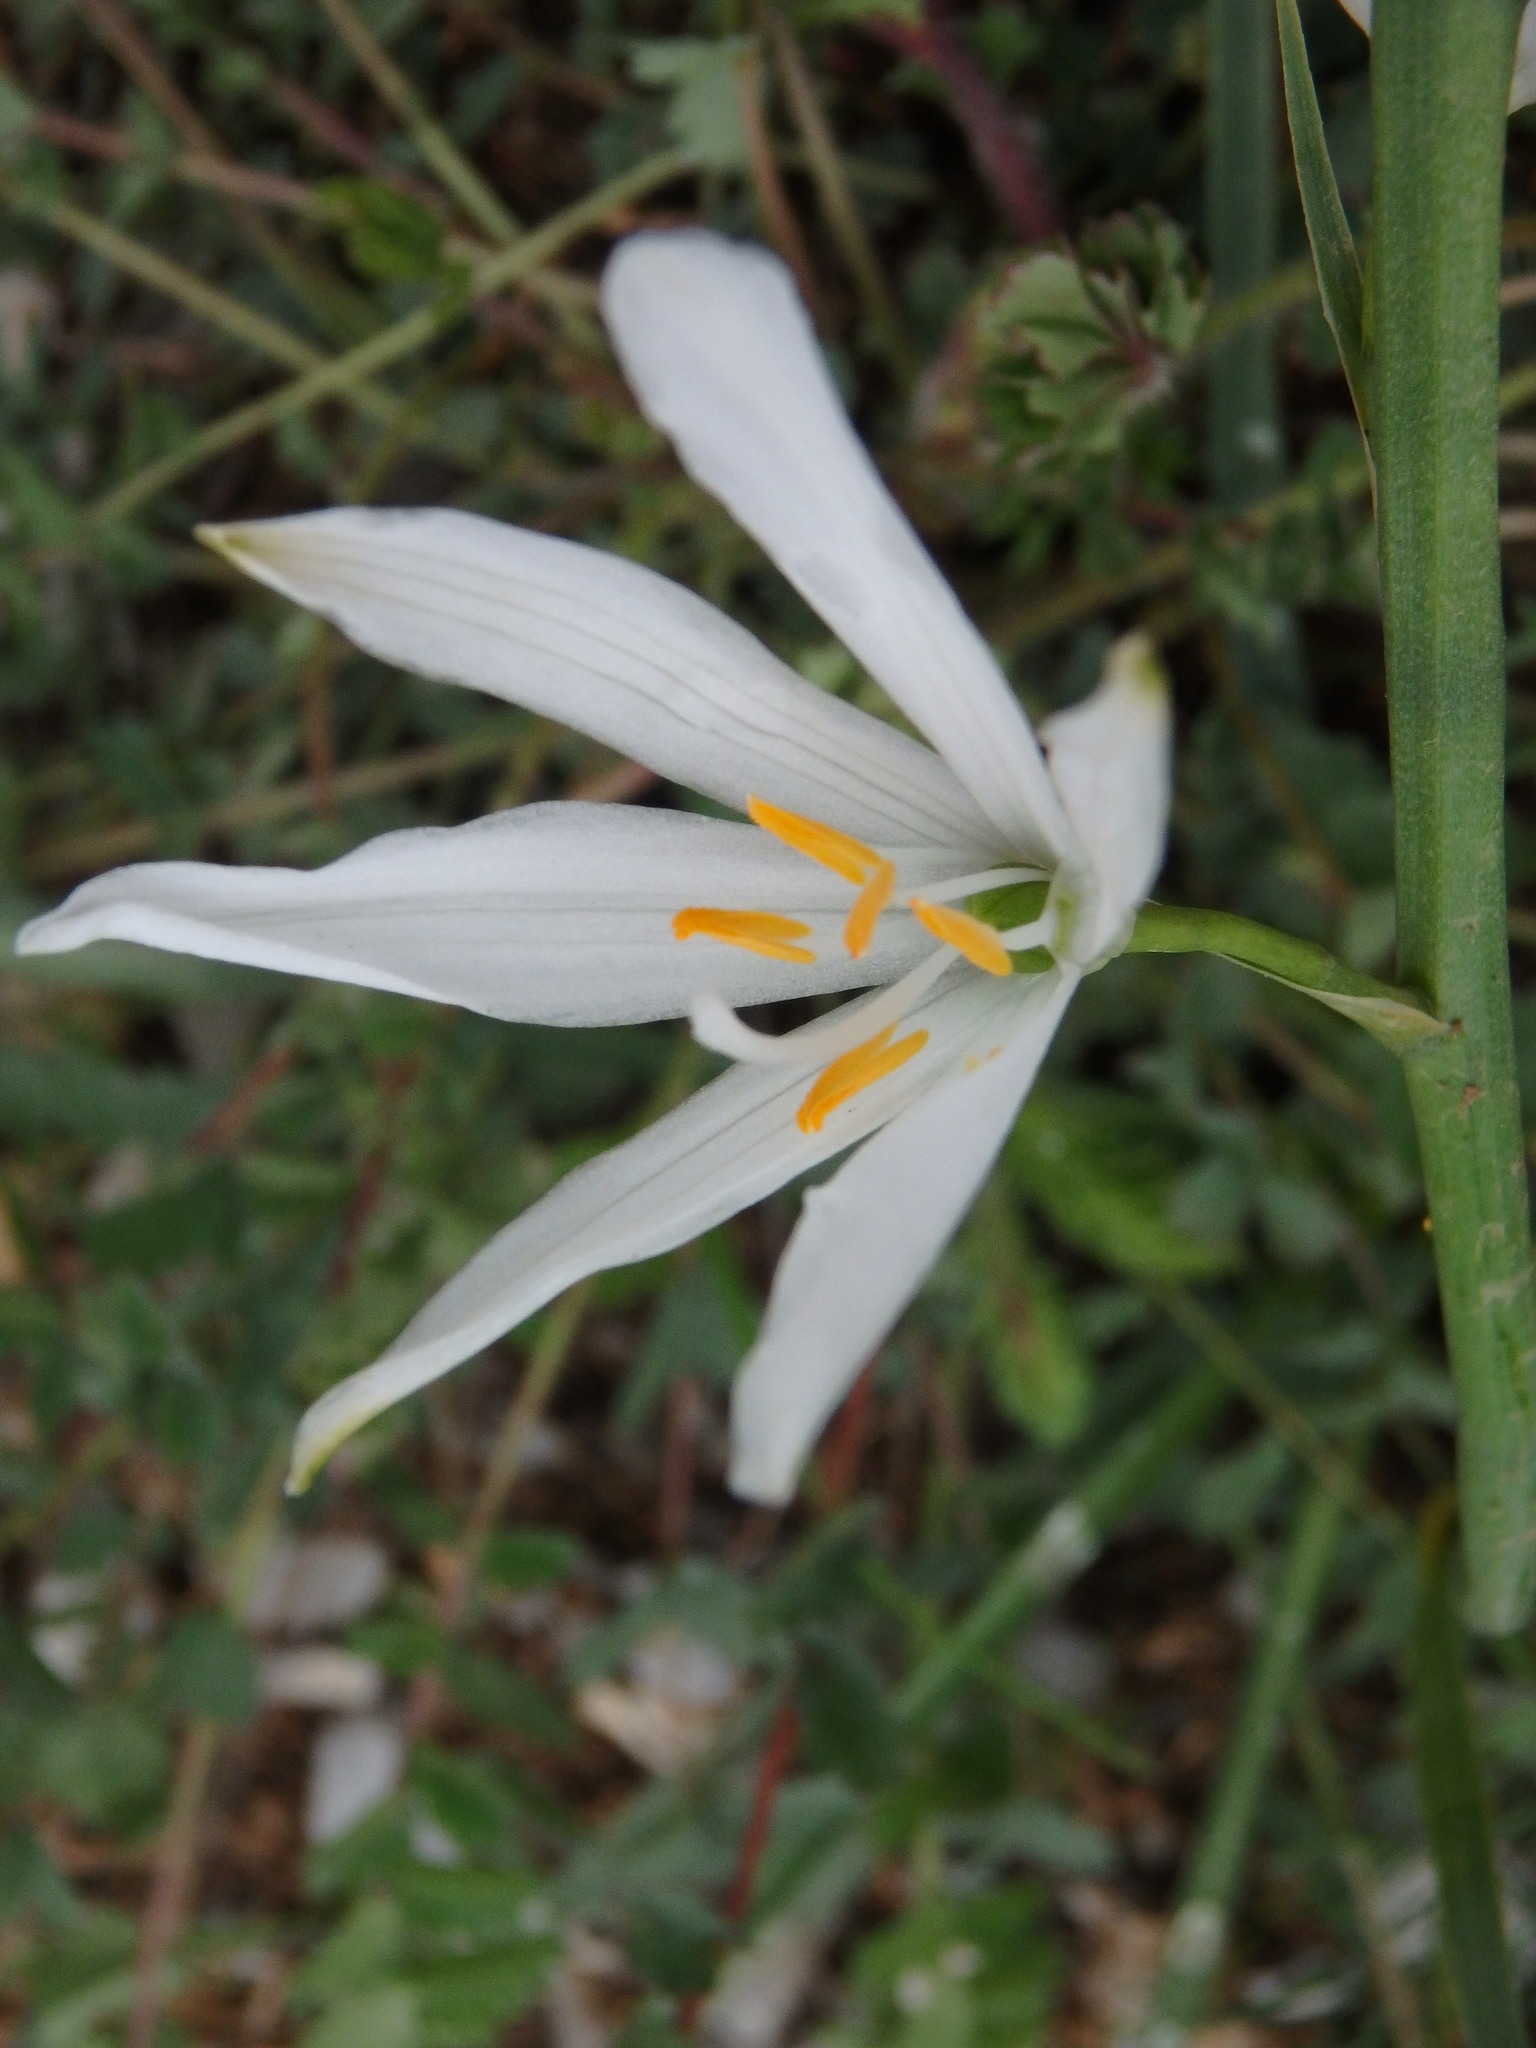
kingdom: Plantae
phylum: Tracheophyta
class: Liliopsida
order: Asparagales
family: Asparagaceae
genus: Anthericum
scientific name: Anthericum liliago
